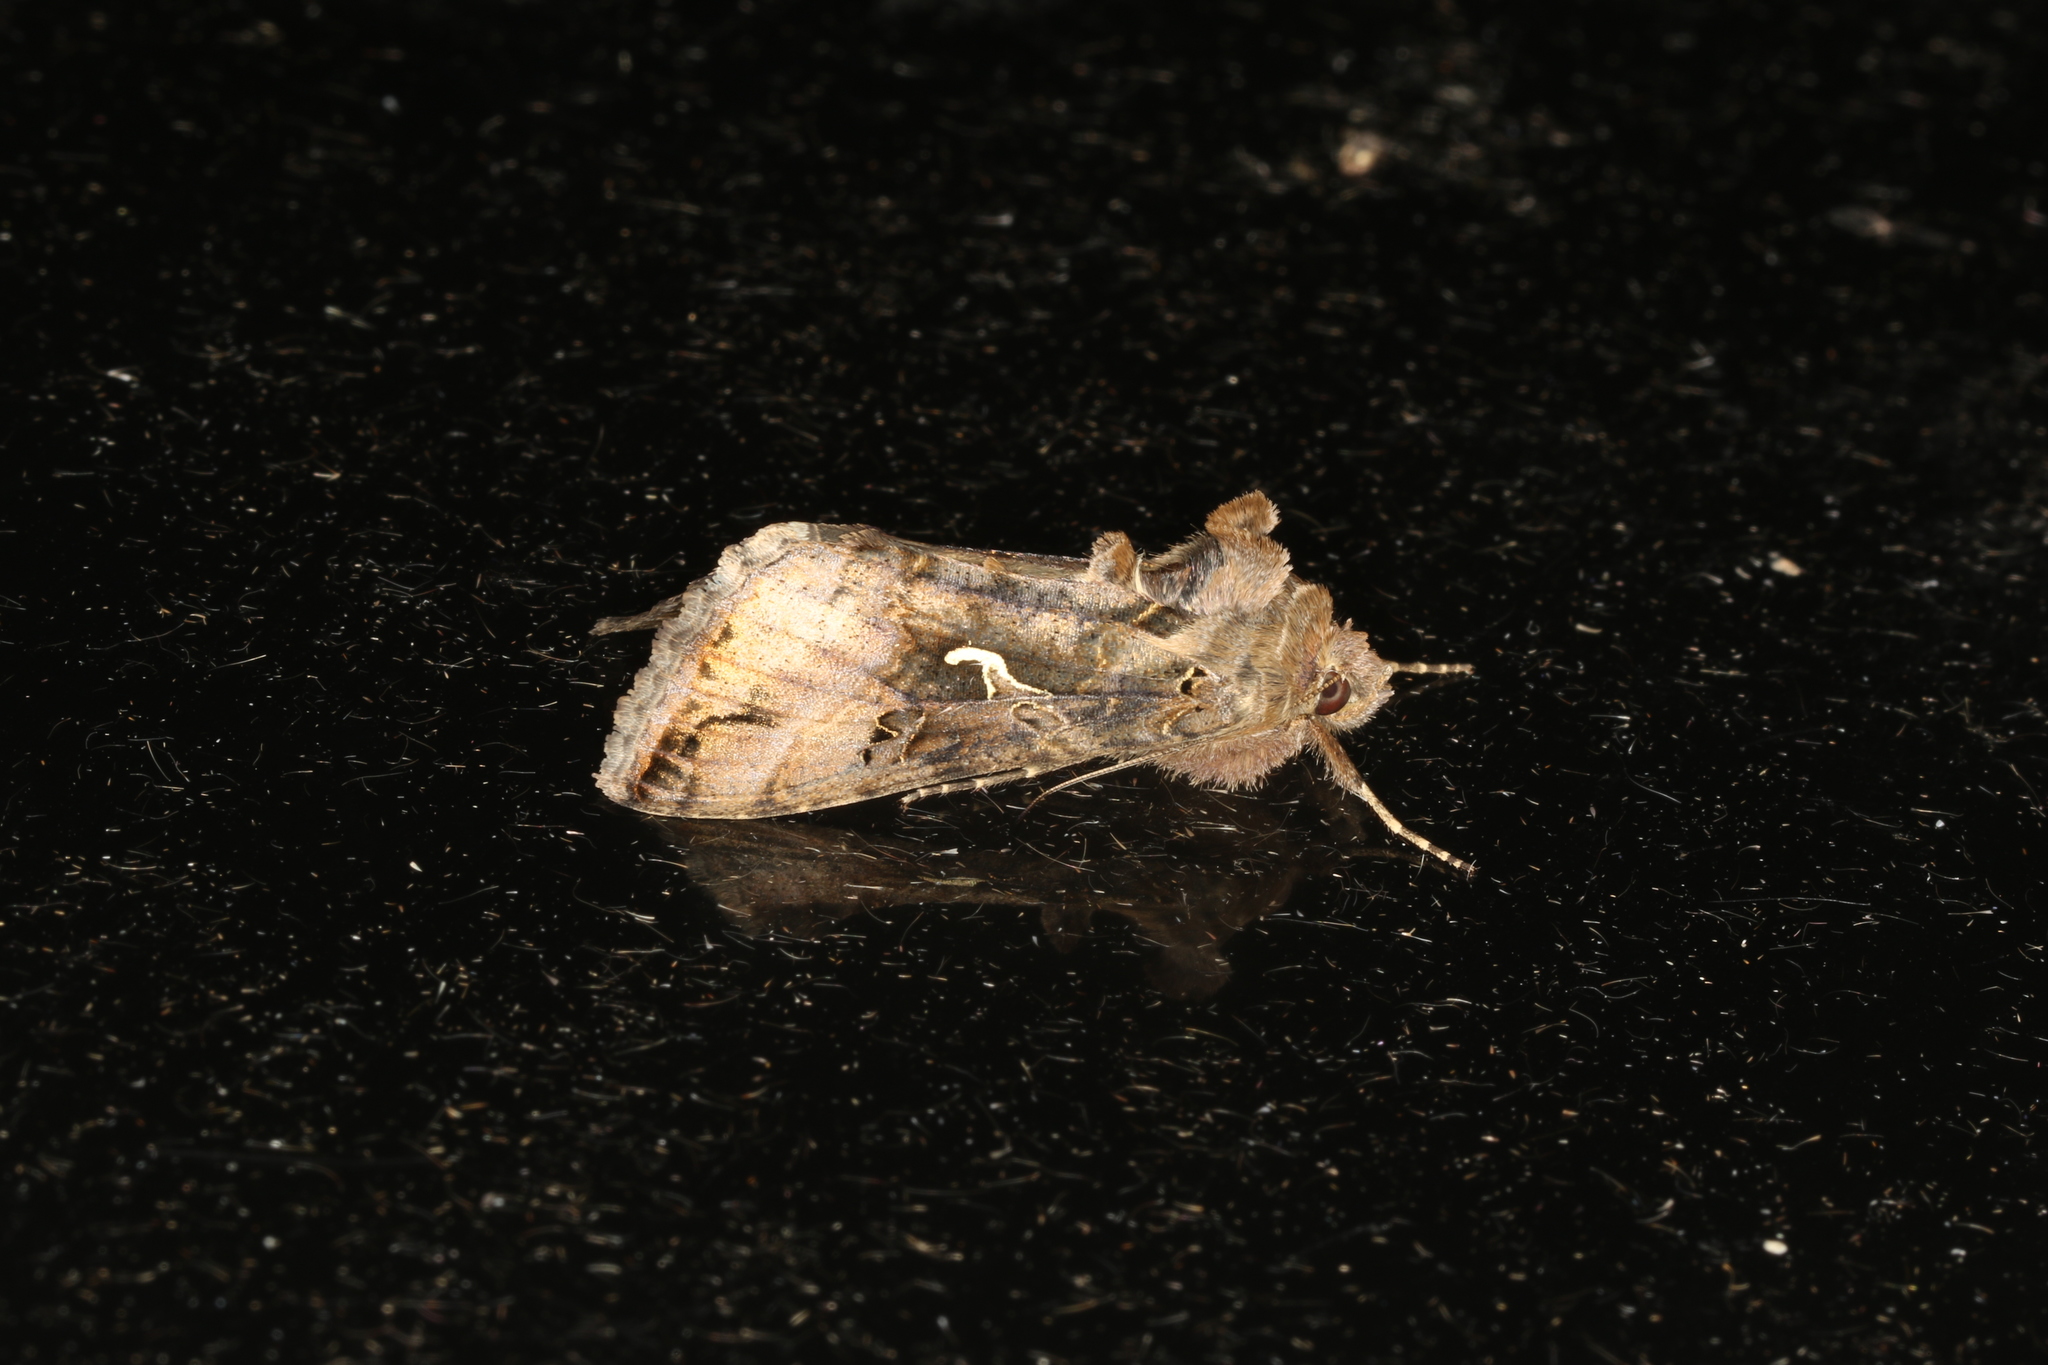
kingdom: Animalia
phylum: Arthropoda
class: Insecta
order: Lepidoptera
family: Noctuidae
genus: Autographa
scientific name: Autographa gamma
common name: Silver y
